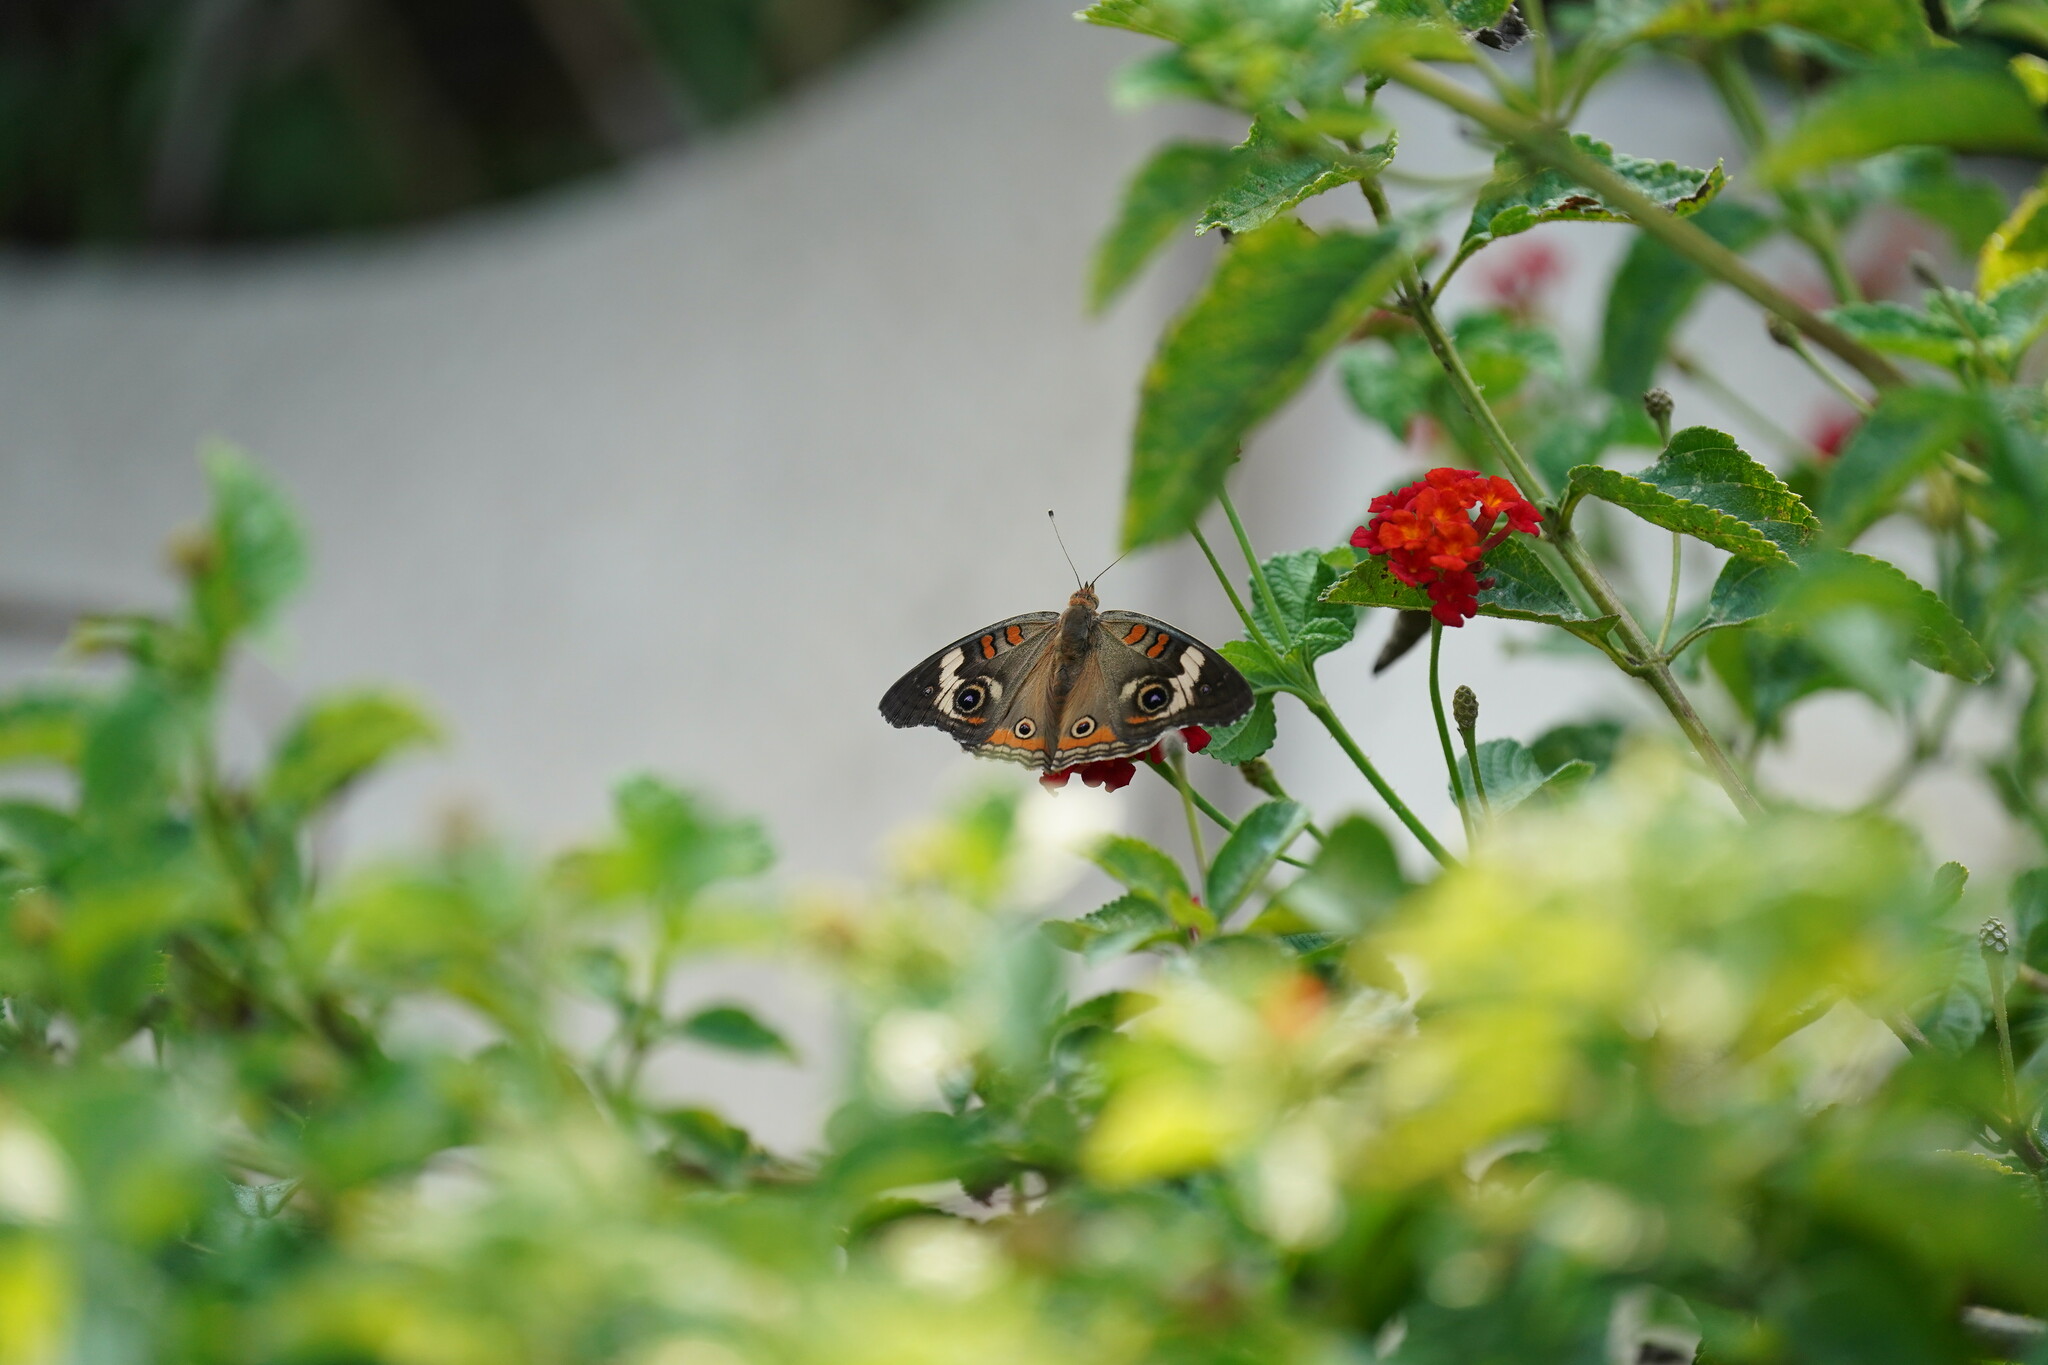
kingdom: Animalia
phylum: Arthropoda
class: Insecta
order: Lepidoptera
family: Nymphalidae
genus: Junonia
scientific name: Junonia coenia
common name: Common buckeye
